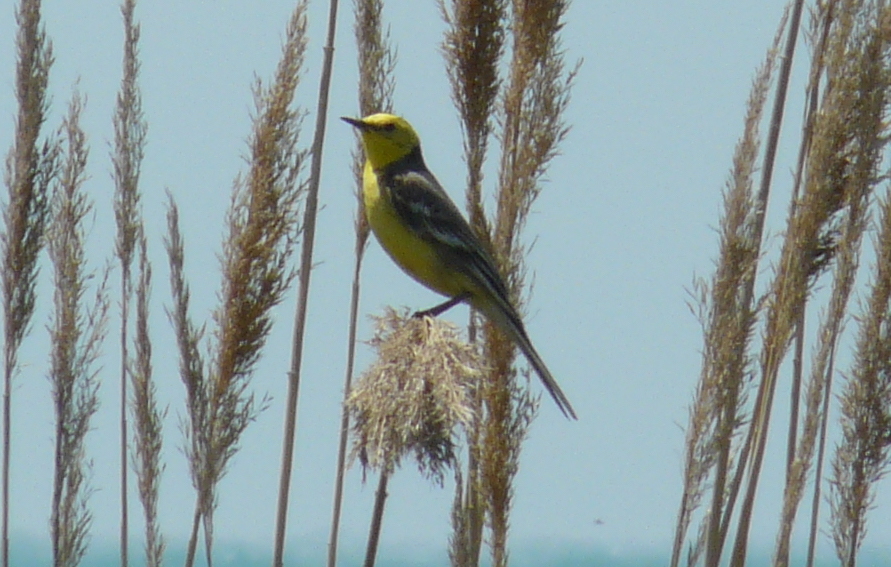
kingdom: Animalia
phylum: Chordata
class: Aves
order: Passeriformes
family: Motacillidae
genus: Motacilla
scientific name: Motacilla citreola
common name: Citrine wagtail
